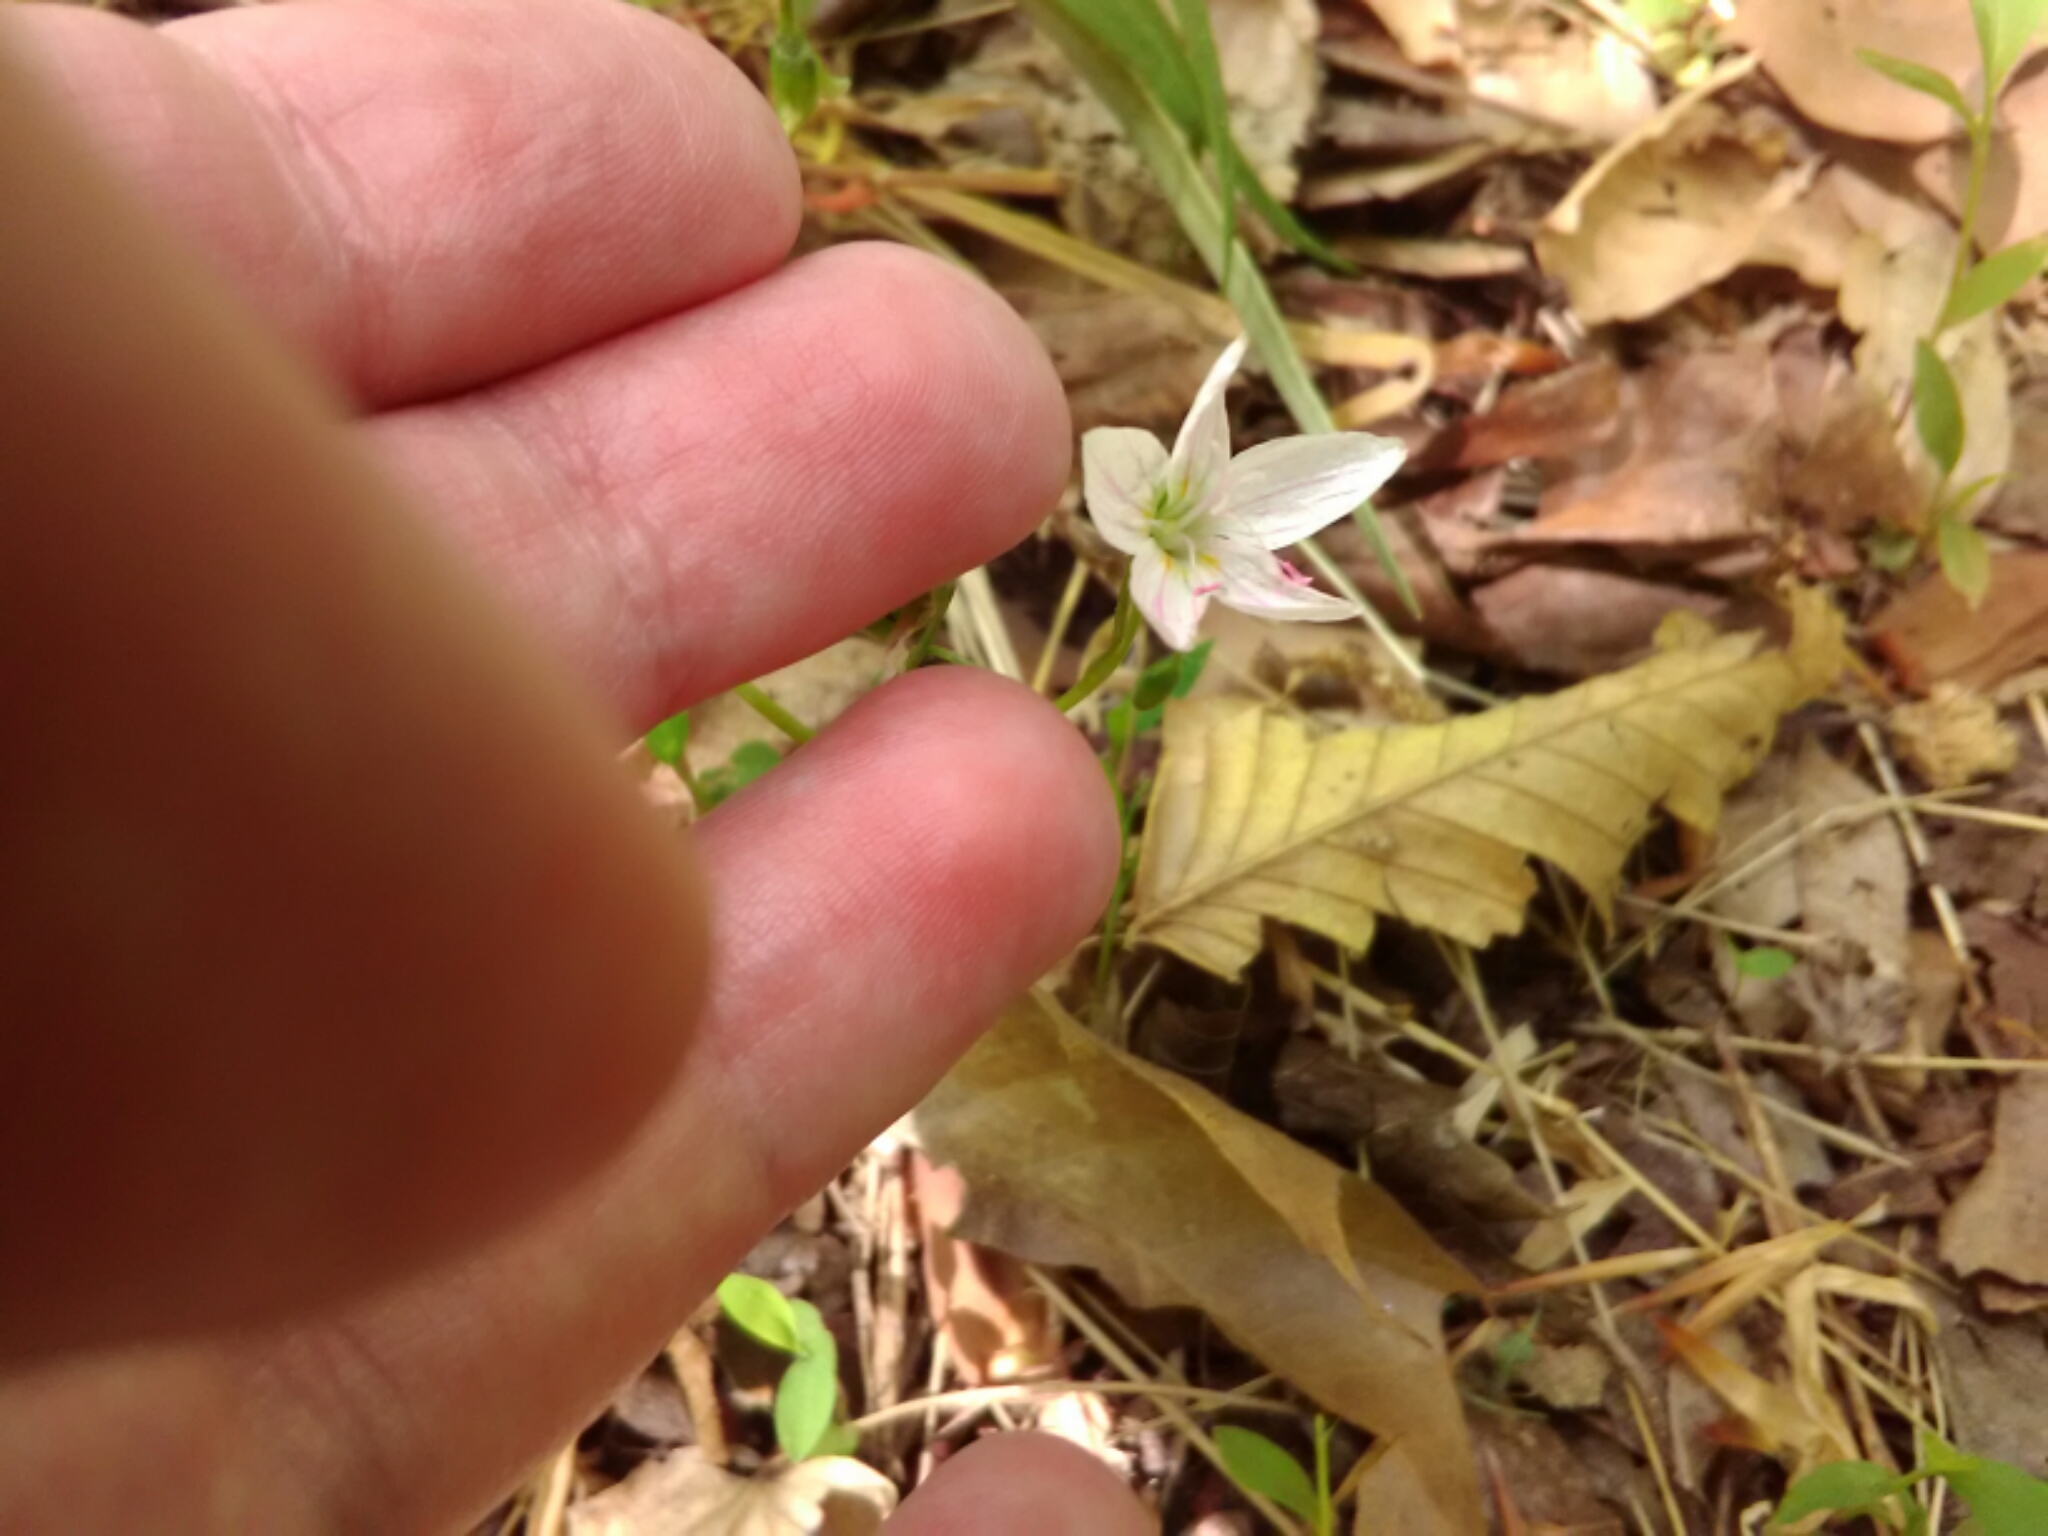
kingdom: Plantae
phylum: Tracheophyta
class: Magnoliopsida
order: Caryophyllales
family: Montiaceae
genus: Claytonia
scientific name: Claytonia virginica
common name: Virginia springbeauty
